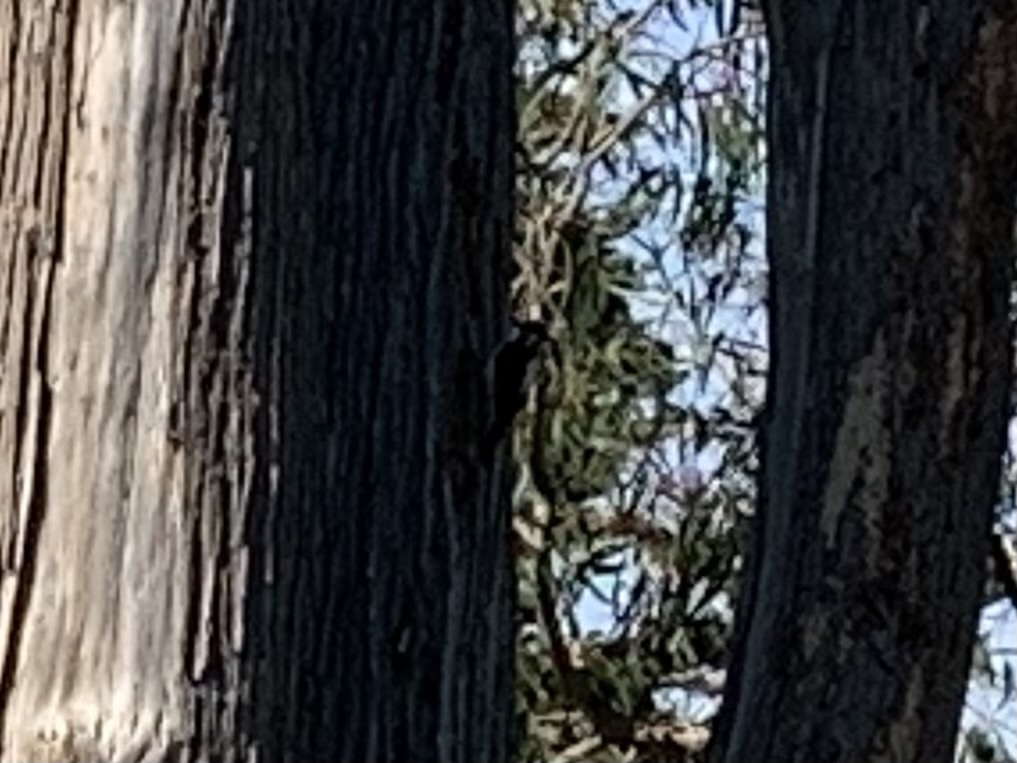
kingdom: Animalia
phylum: Chordata
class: Aves
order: Piciformes
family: Picidae
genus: Dryobates
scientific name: Dryobates
